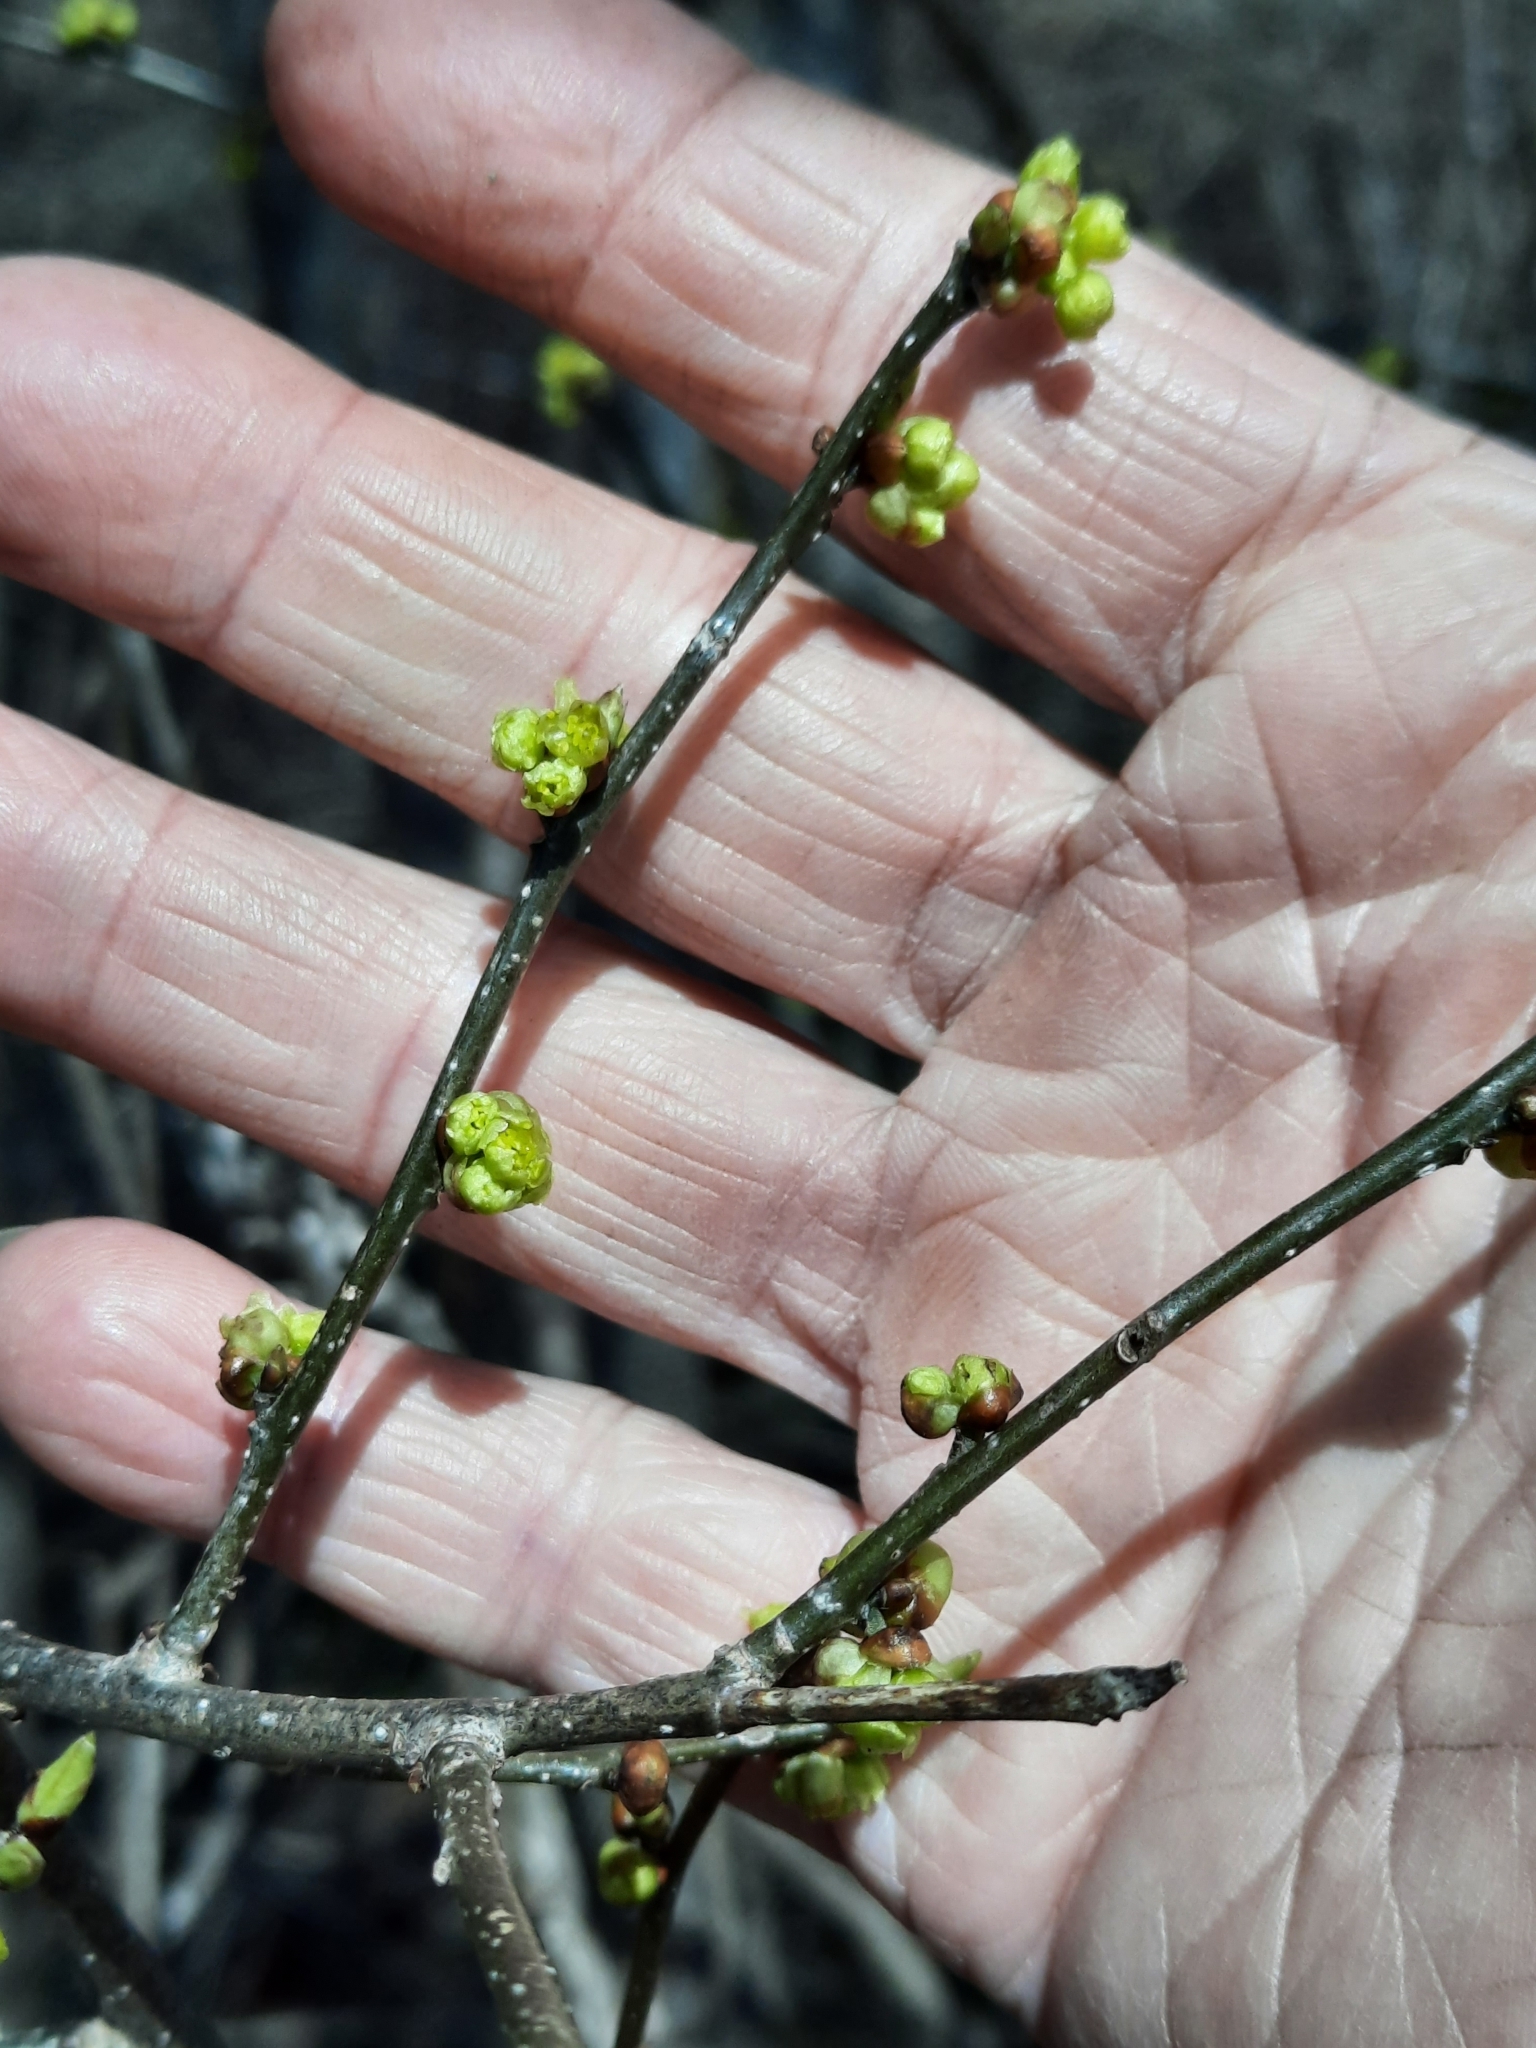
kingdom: Plantae
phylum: Tracheophyta
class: Magnoliopsida
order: Laurales
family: Lauraceae
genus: Lindera
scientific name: Lindera benzoin
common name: Spicebush
